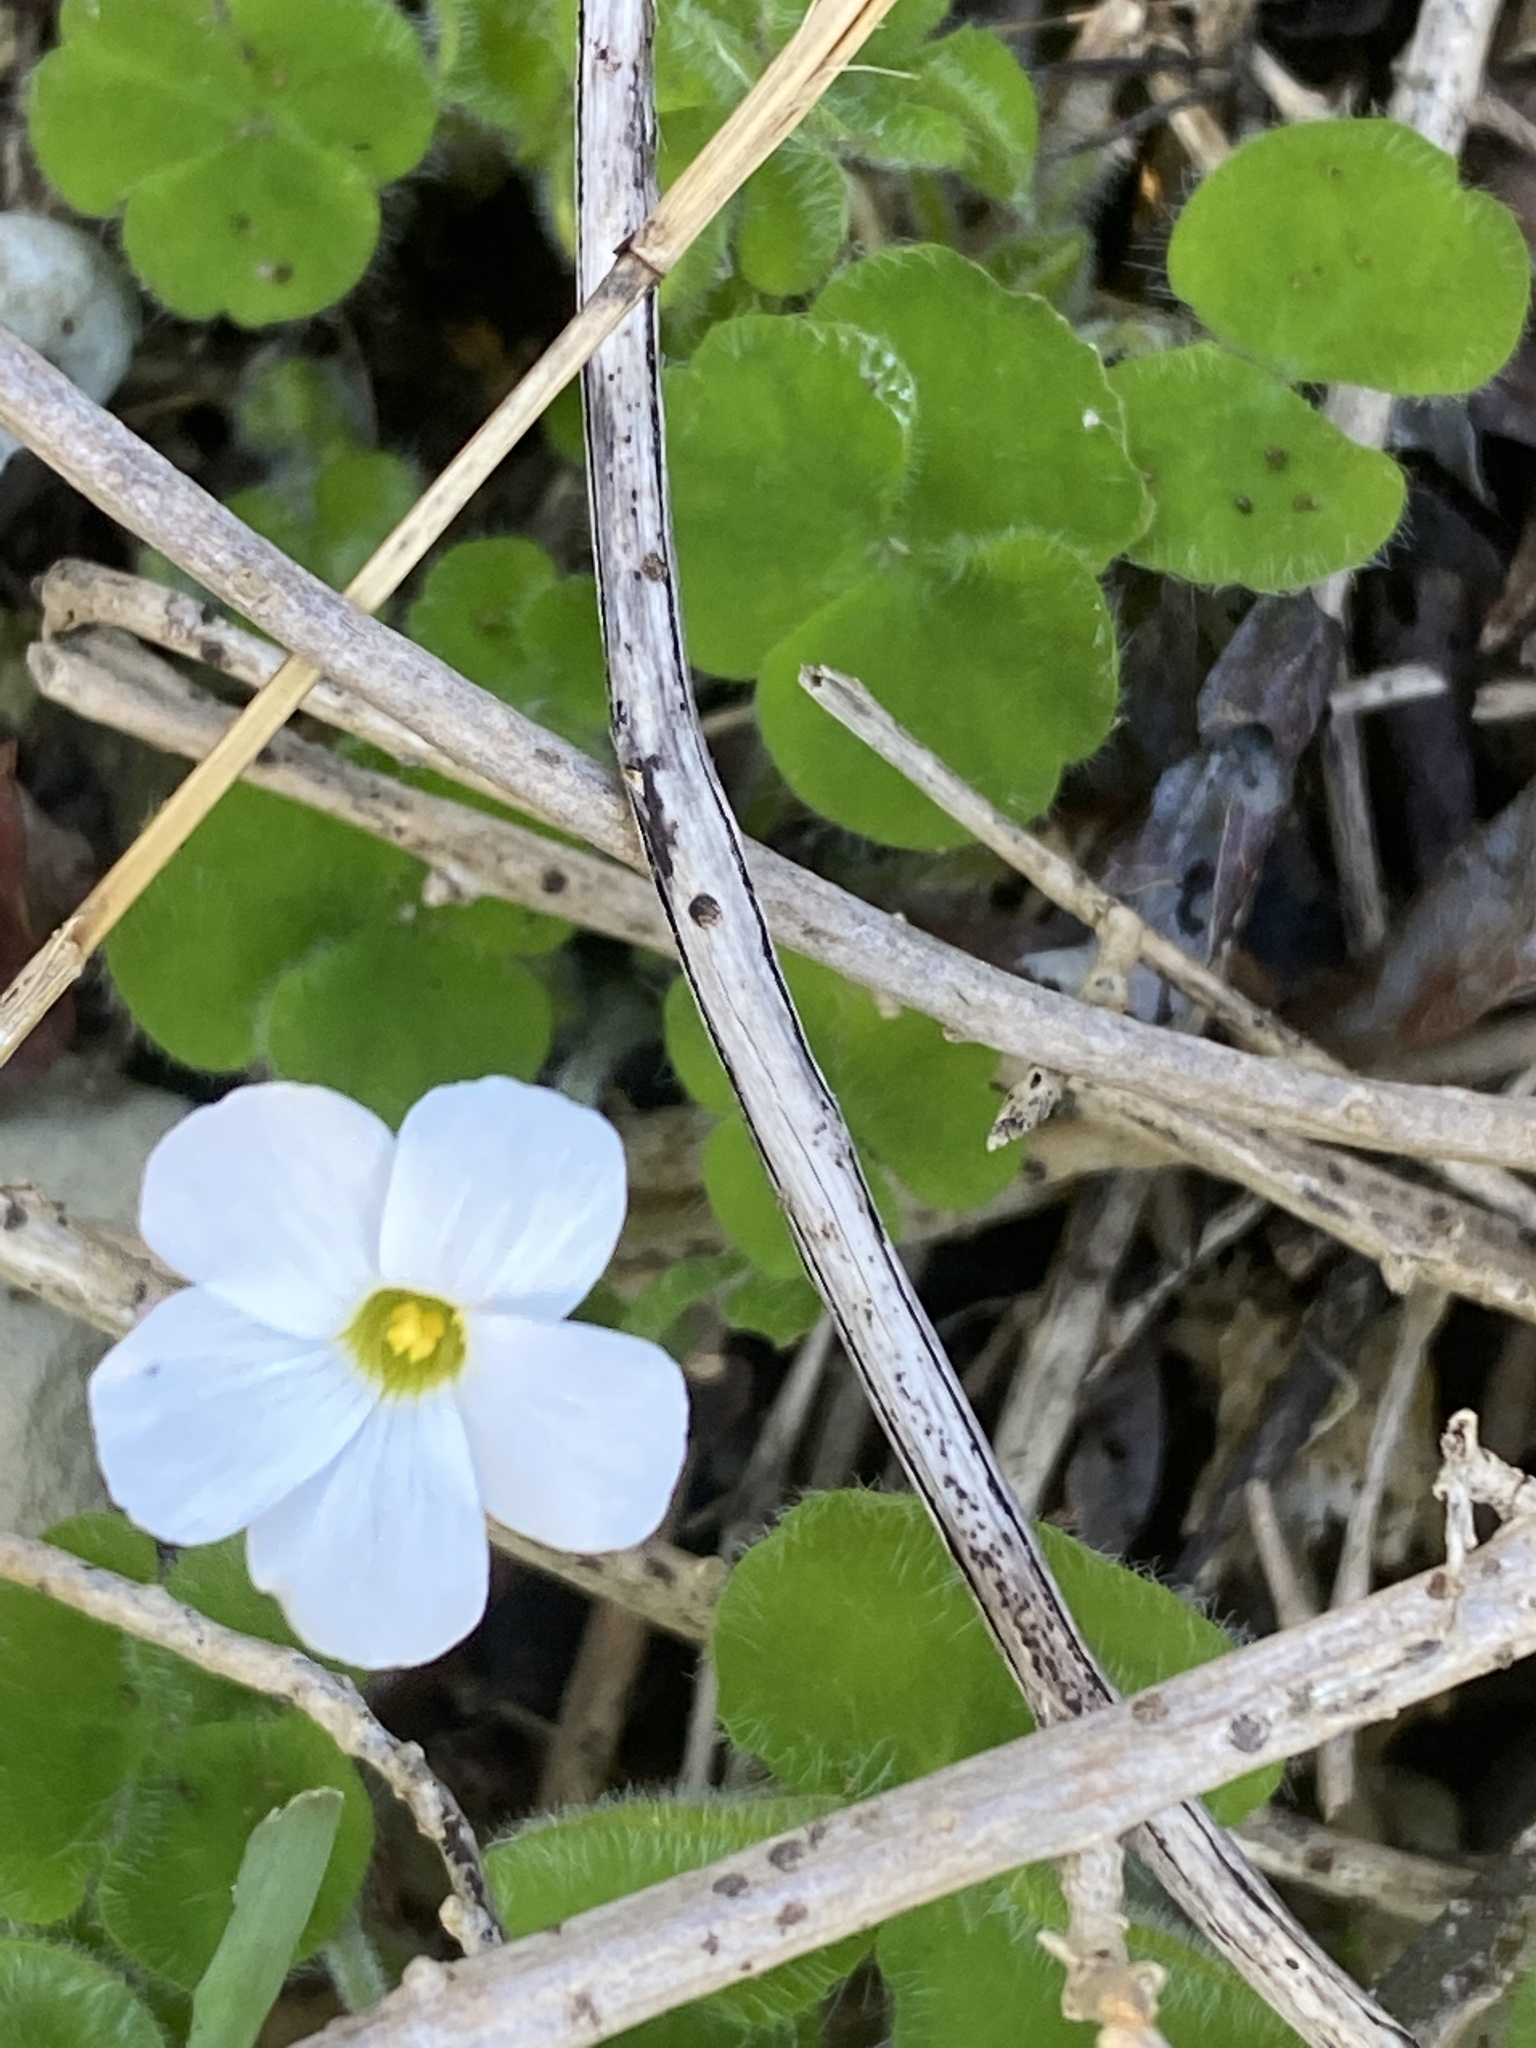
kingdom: Plantae
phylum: Tracheophyta
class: Magnoliopsida
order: Oxalidales
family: Oxalidaceae
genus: Oxalis
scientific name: Oxalis imbricata
